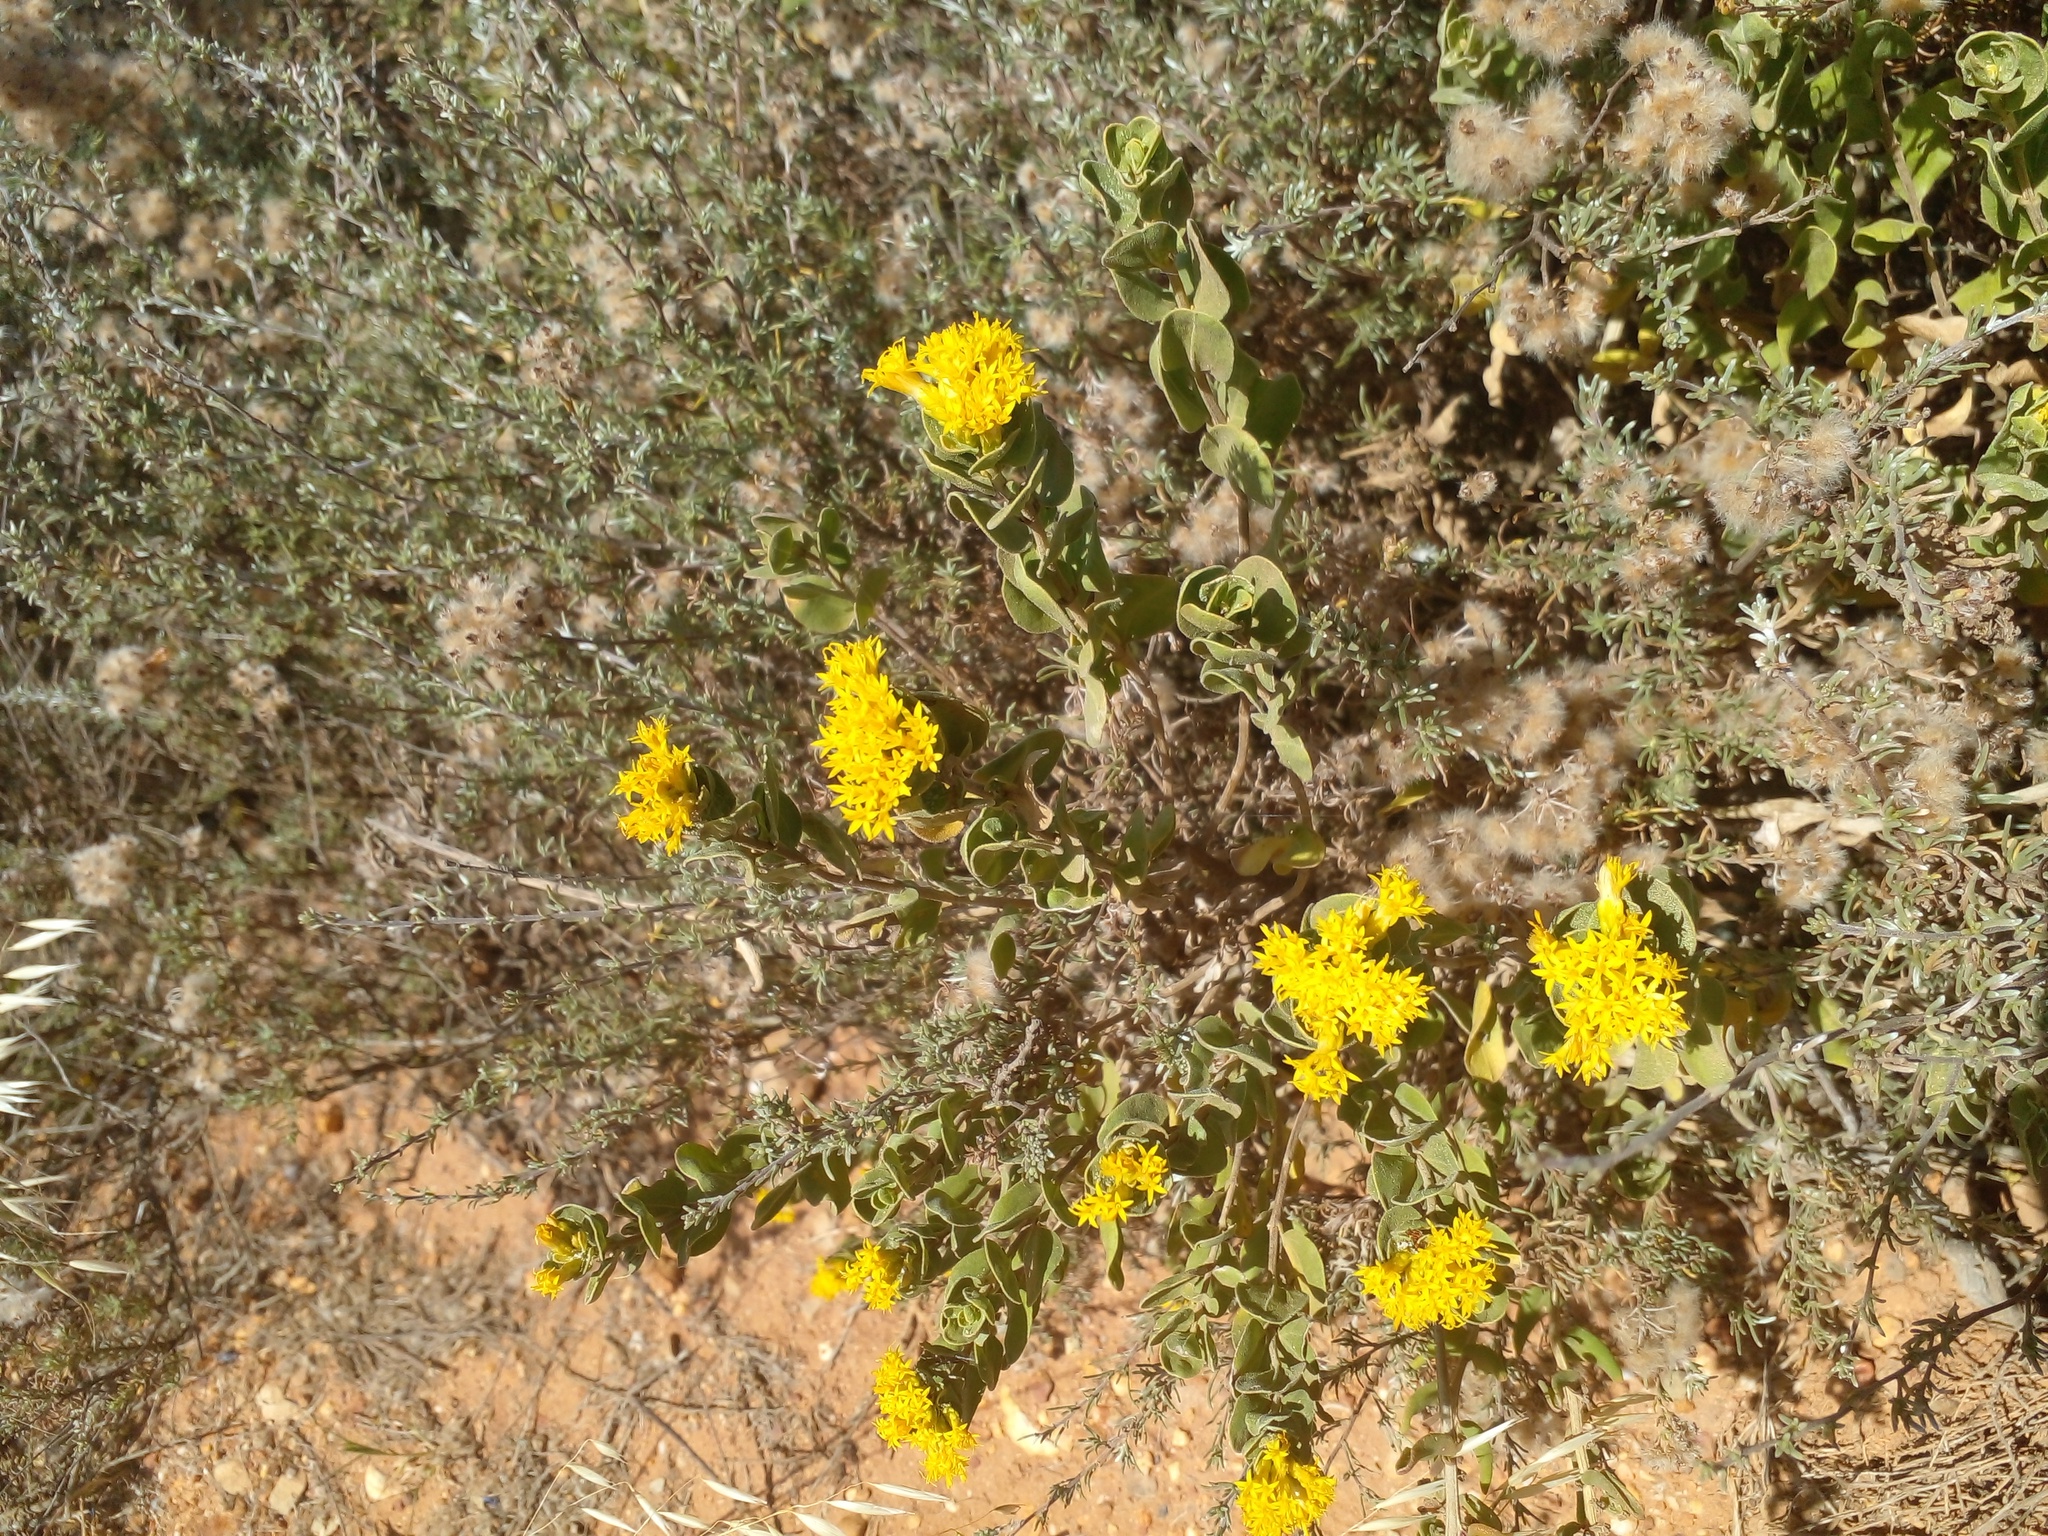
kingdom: Plantae
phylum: Tracheophyta
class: Magnoliopsida
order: Asterales
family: Asteraceae
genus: Pteronia
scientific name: Pteronia divaricata
